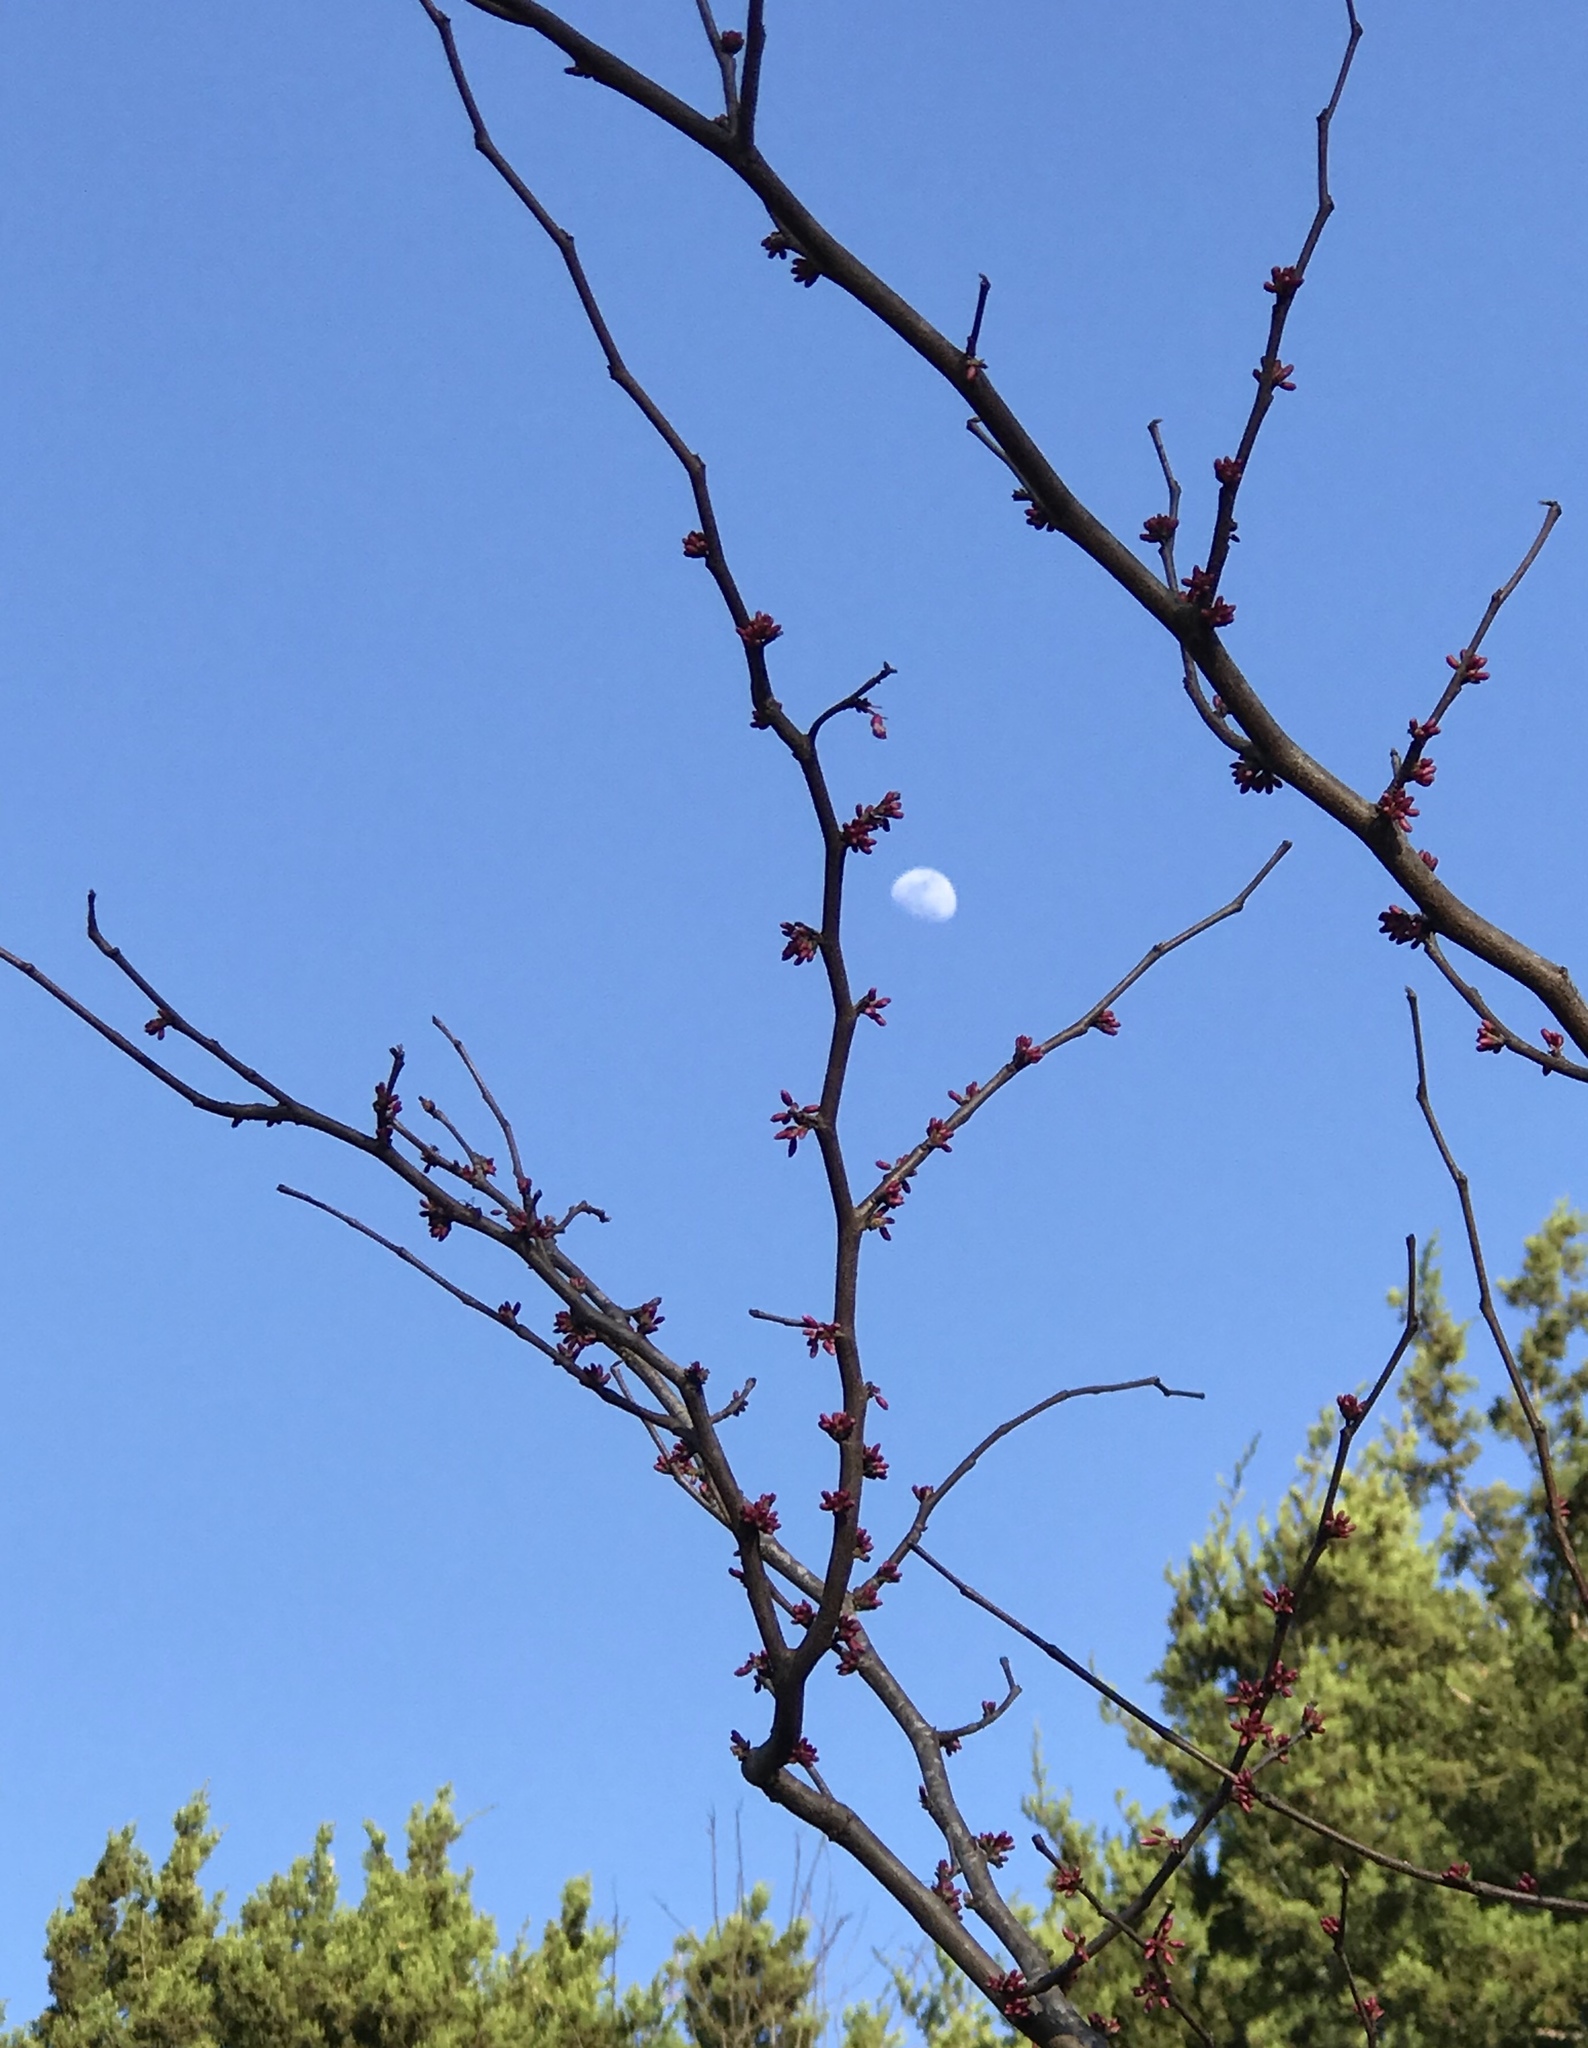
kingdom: Plantae
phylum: Tracheophyta
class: Magnoliopsida
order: Fabales
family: Fabaceae
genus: Cercis
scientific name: Cercis canadensis
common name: Eastern redbud
